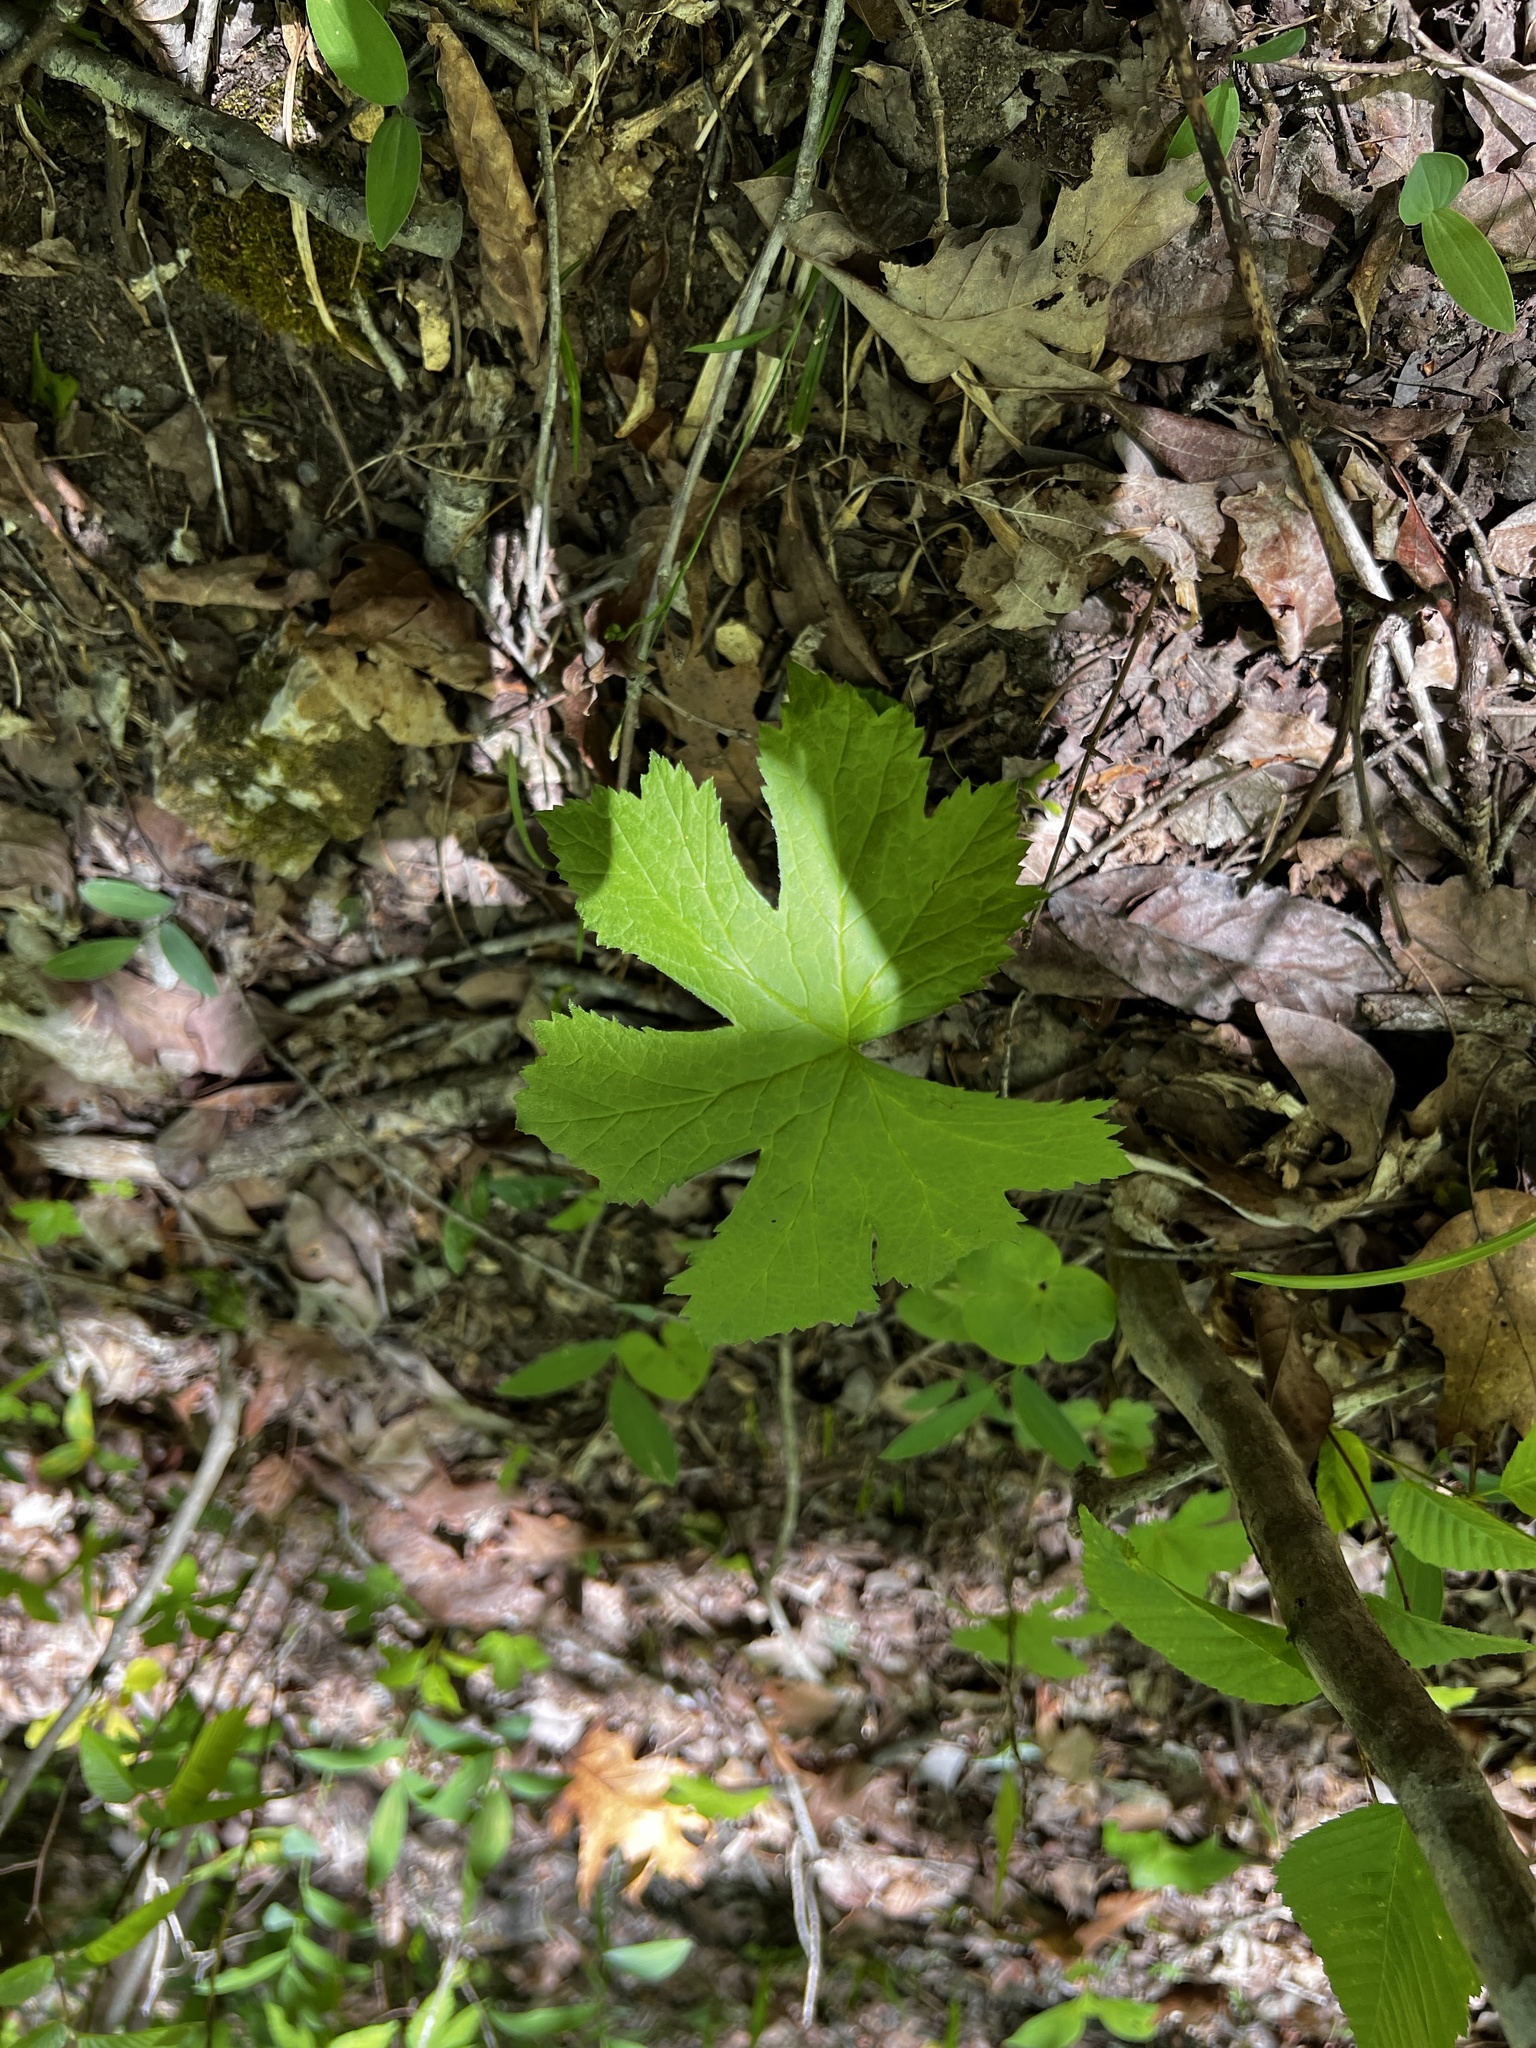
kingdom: Plantae
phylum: Tracheophyta
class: Magnoliopsida
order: Ranunculales
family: Ranunculaceae
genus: Hydrastis
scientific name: Hydrastis canadensis
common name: Goldenseal
